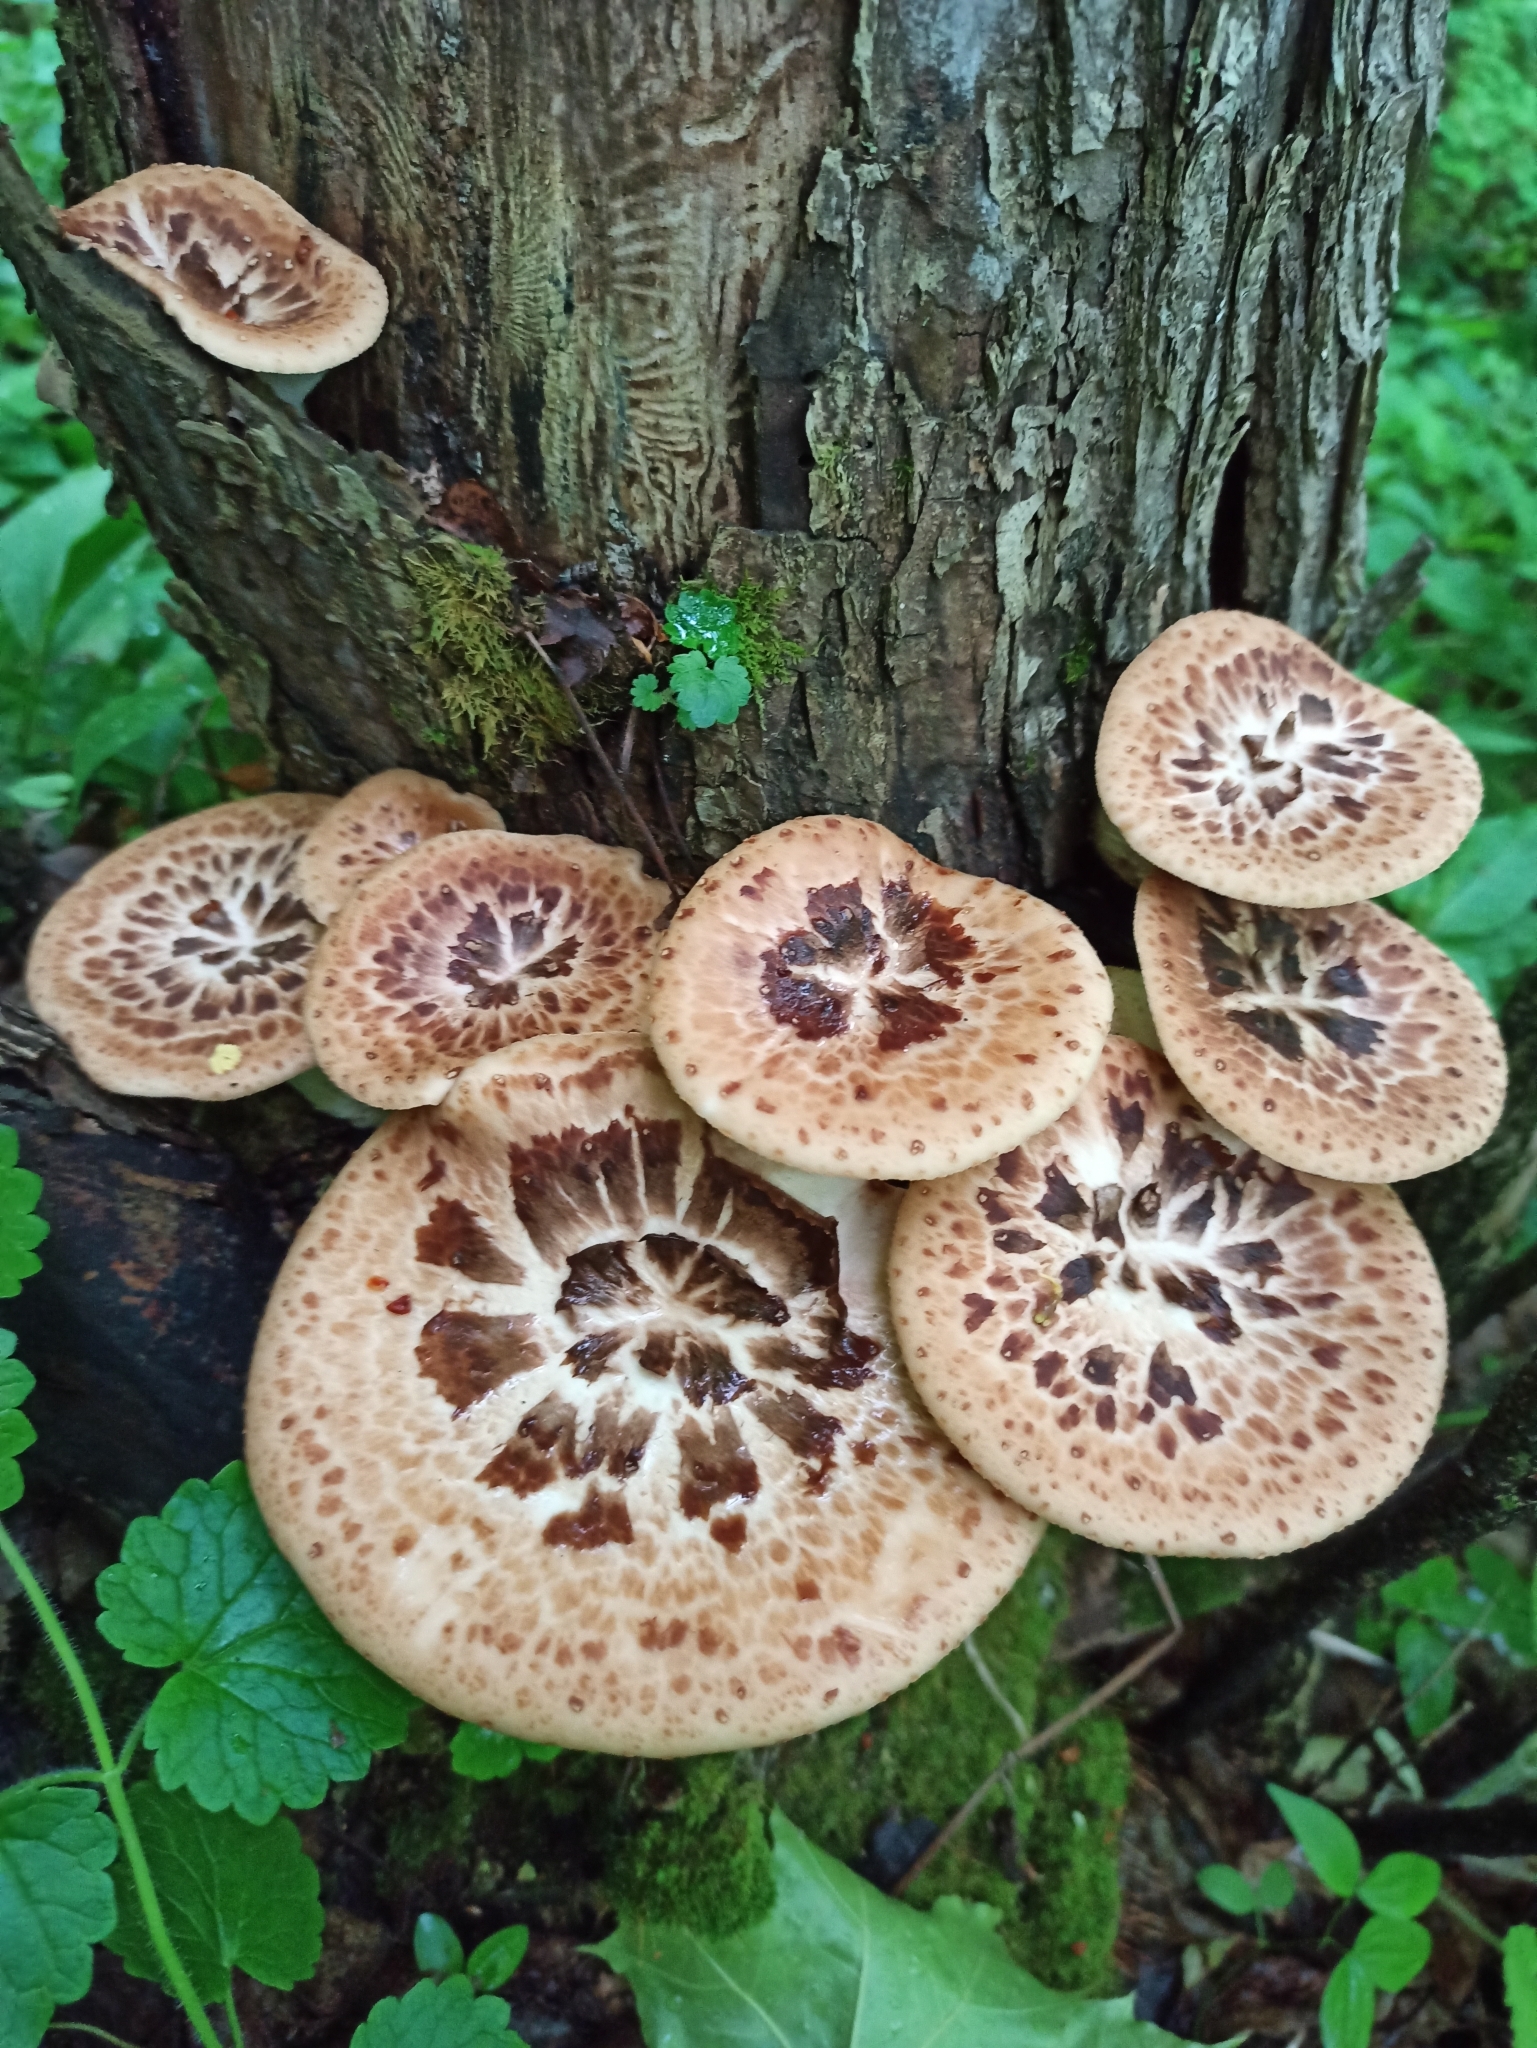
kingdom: Fungi
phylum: Basidiomycota
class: Agaricomycetes
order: Polyporales
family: Polyporaceae
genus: Cerioporus
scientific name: Cerioporus squamosus
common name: Dryad's saddle
